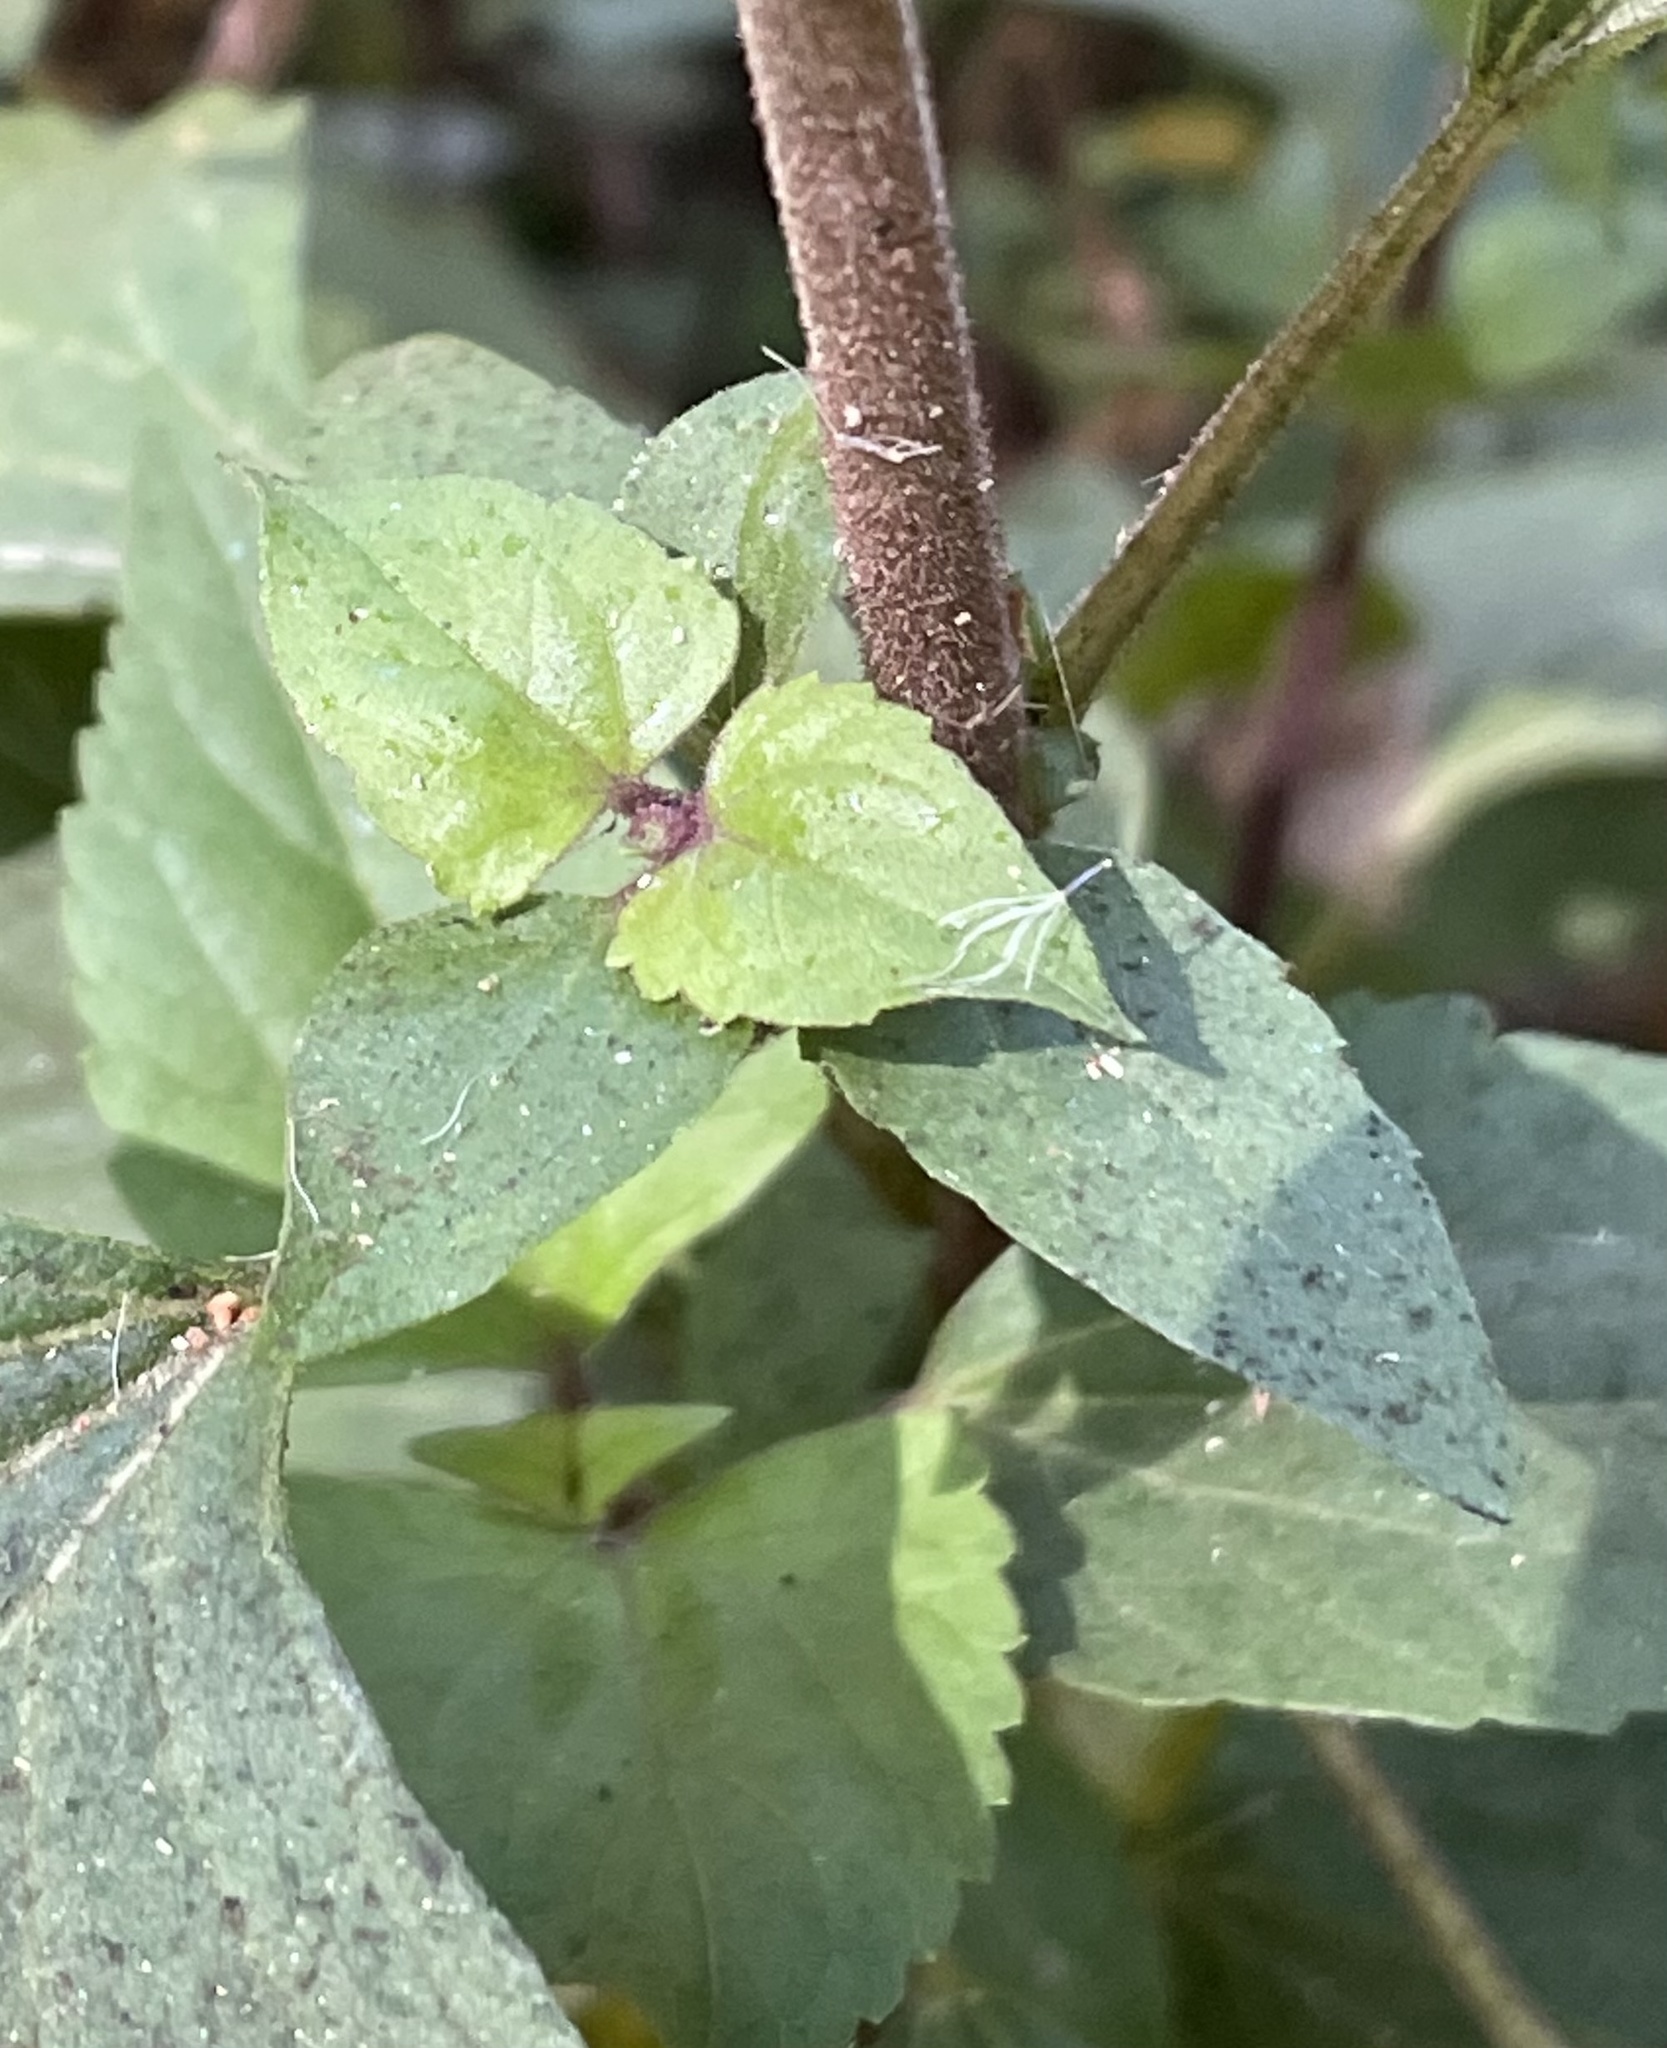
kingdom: Plantae
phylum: Tracheophyta
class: Magnoliopsida
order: Asterales
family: Asteraceae
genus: Ageratina
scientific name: Ageratina adenophora
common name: Sticky snakeroot
